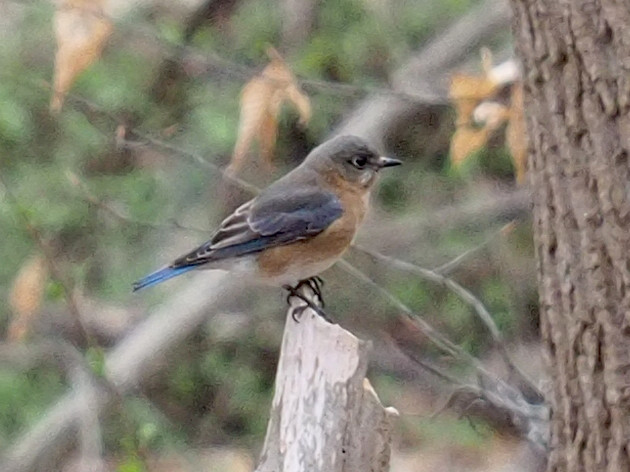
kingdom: Animalia
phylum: Chordata
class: Aves
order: Passeriformes
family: Turdidae
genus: Sialia
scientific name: Sialia sialis
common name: Eastern bluebird
